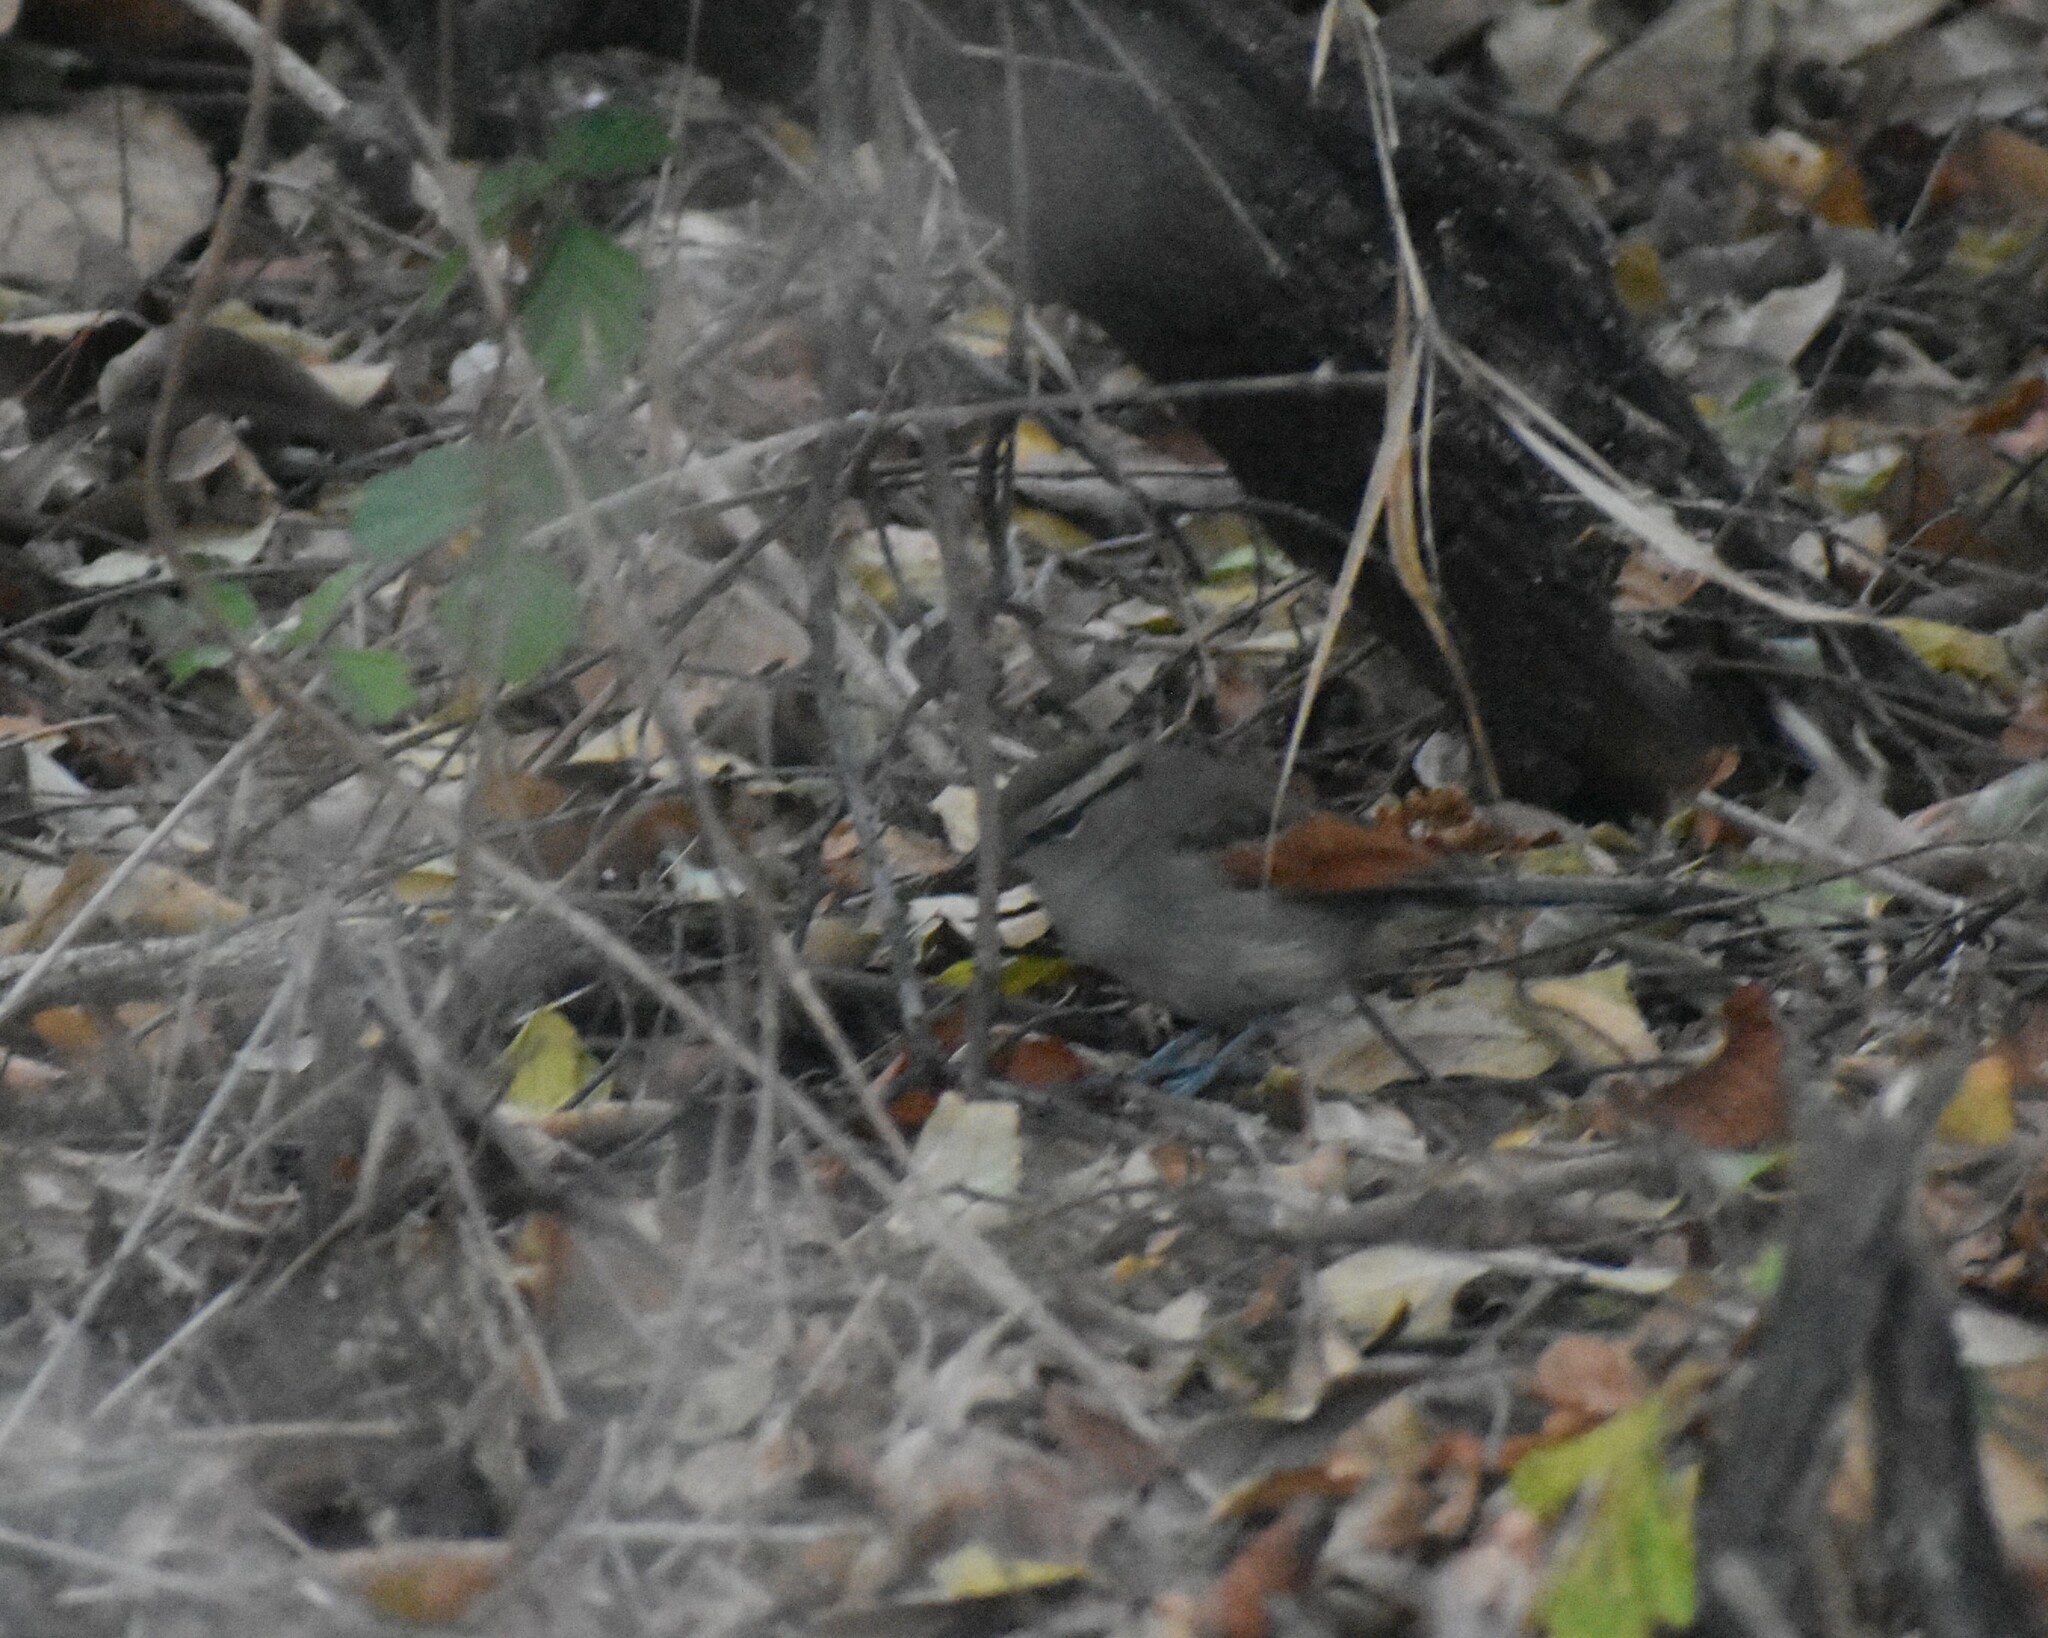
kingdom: Animalia
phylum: Chordata
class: Aves
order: Passeriformes
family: Malaconotidae
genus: Tchagra
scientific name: Tchagra australis
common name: Brown-crowned tchagra
